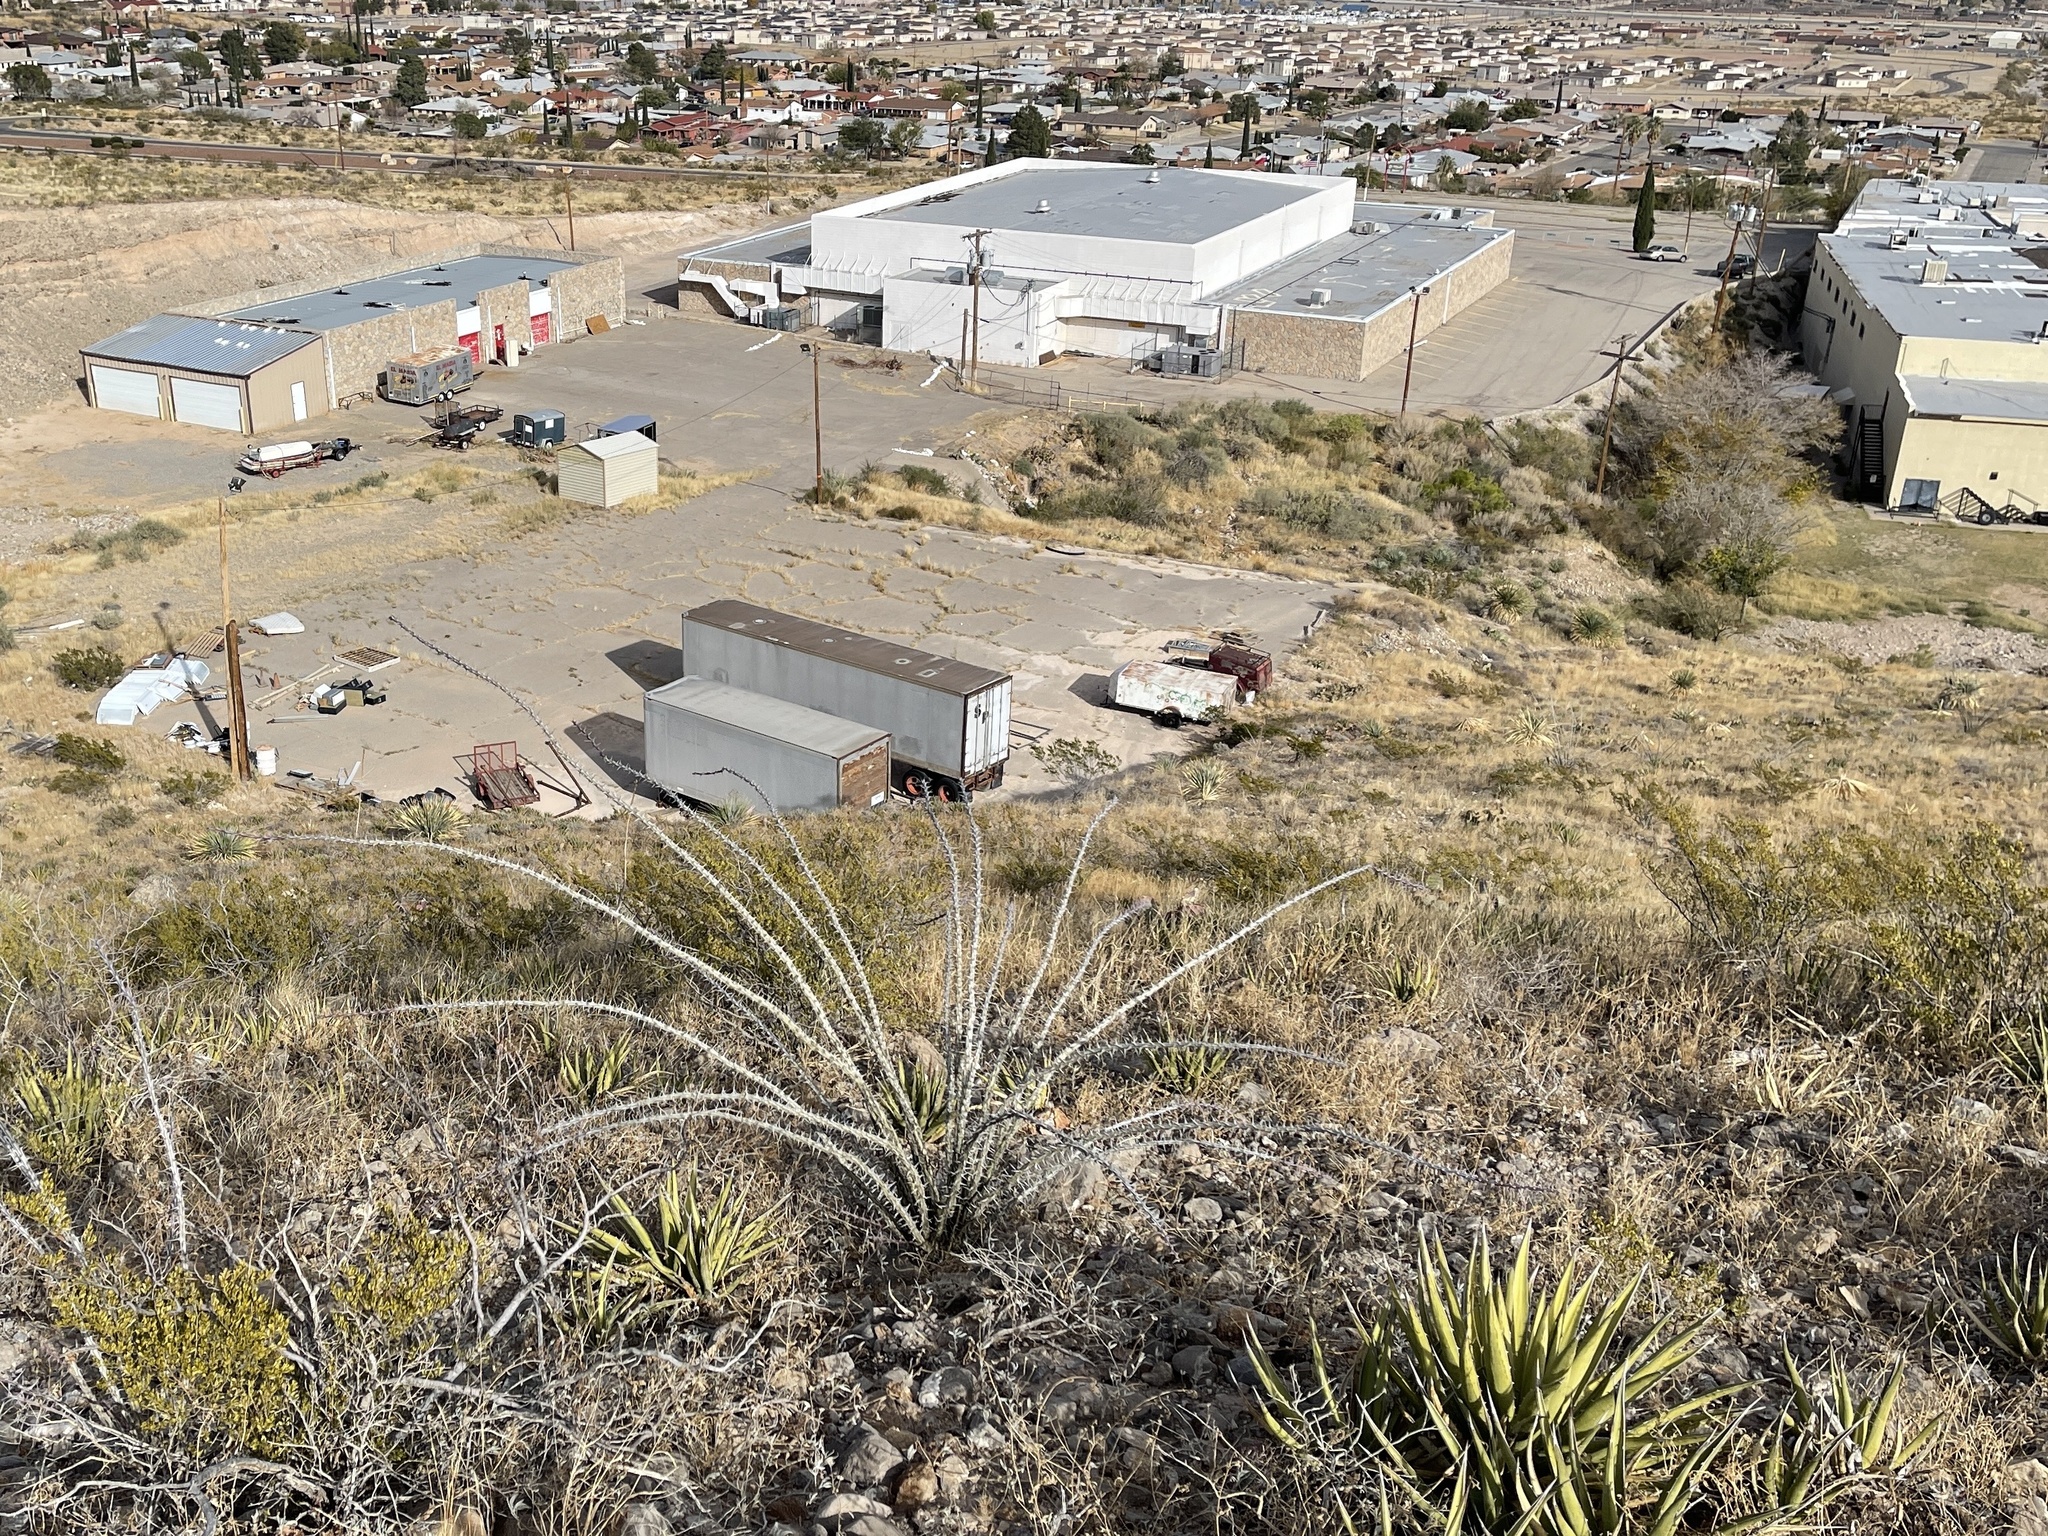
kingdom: Plantae
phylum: Tracheophyta
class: Magnoliopsida
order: Ericales
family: Fouquieriaceae
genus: Fouquieria
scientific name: Fouquieria splendens
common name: Vine-cactus
